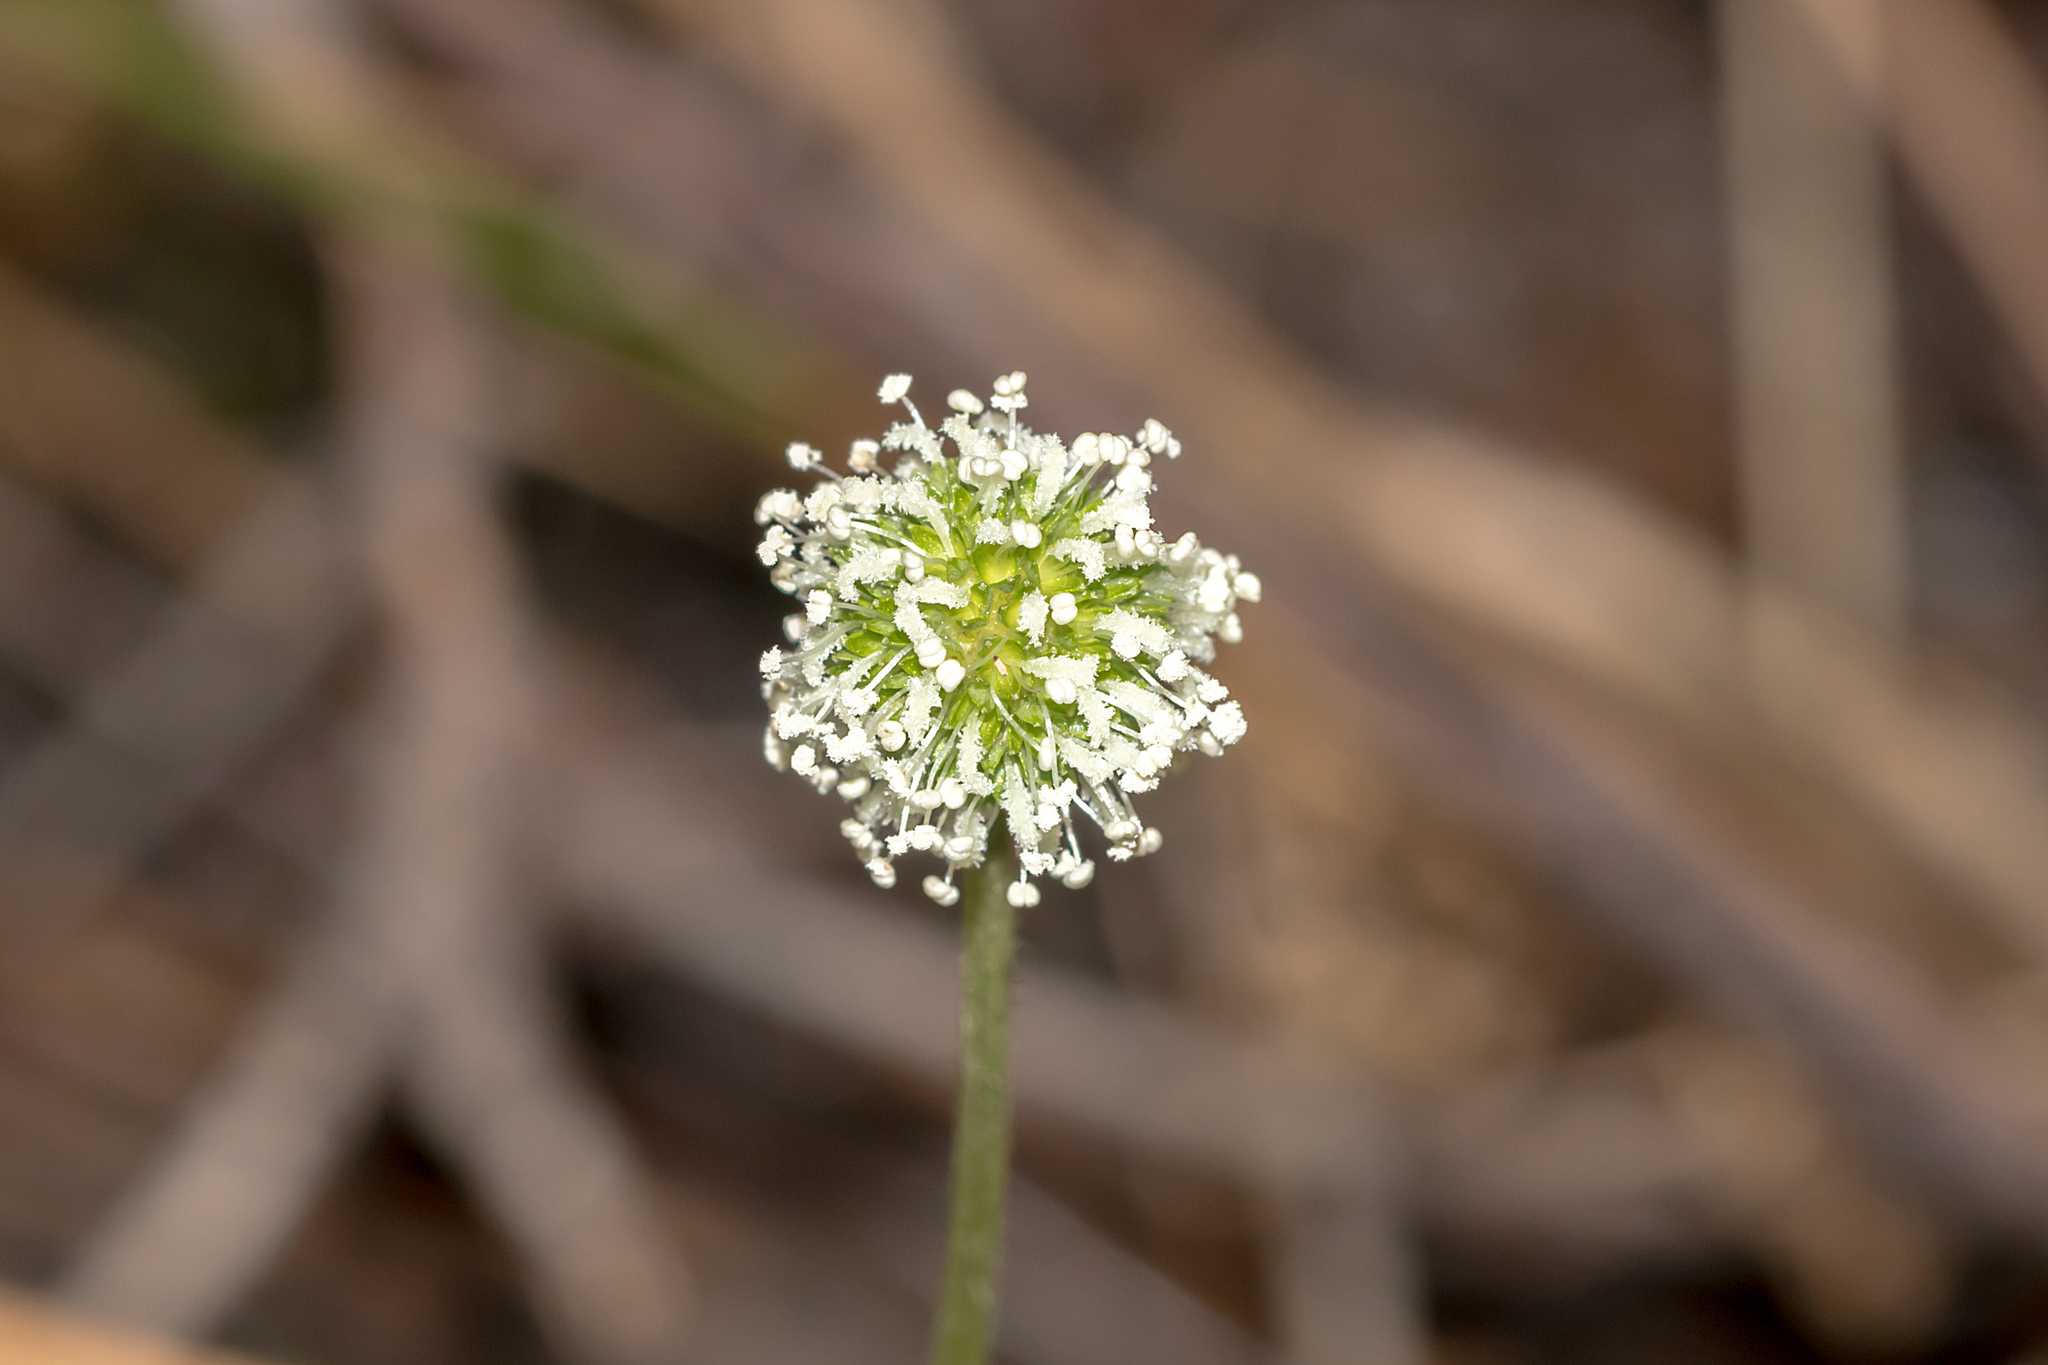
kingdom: Plantae
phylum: Tracheophyta
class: Magnoliopsida
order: Rosales
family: Rosaceae
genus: Acaena
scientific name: Acaena novae-zelandiae
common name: Pirri-pirri-bur
